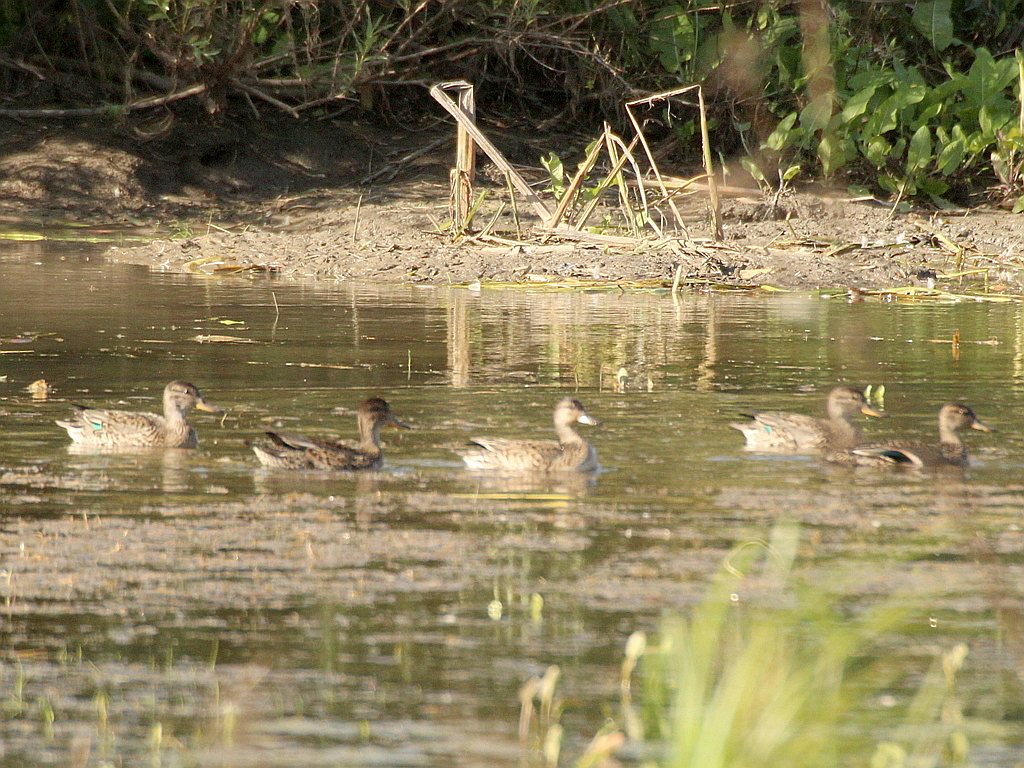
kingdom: Animalia
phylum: Chordata
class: Aves
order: Anseriformes
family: Anatidae
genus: Anas
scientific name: Anas crecca
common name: Eurasian teal
